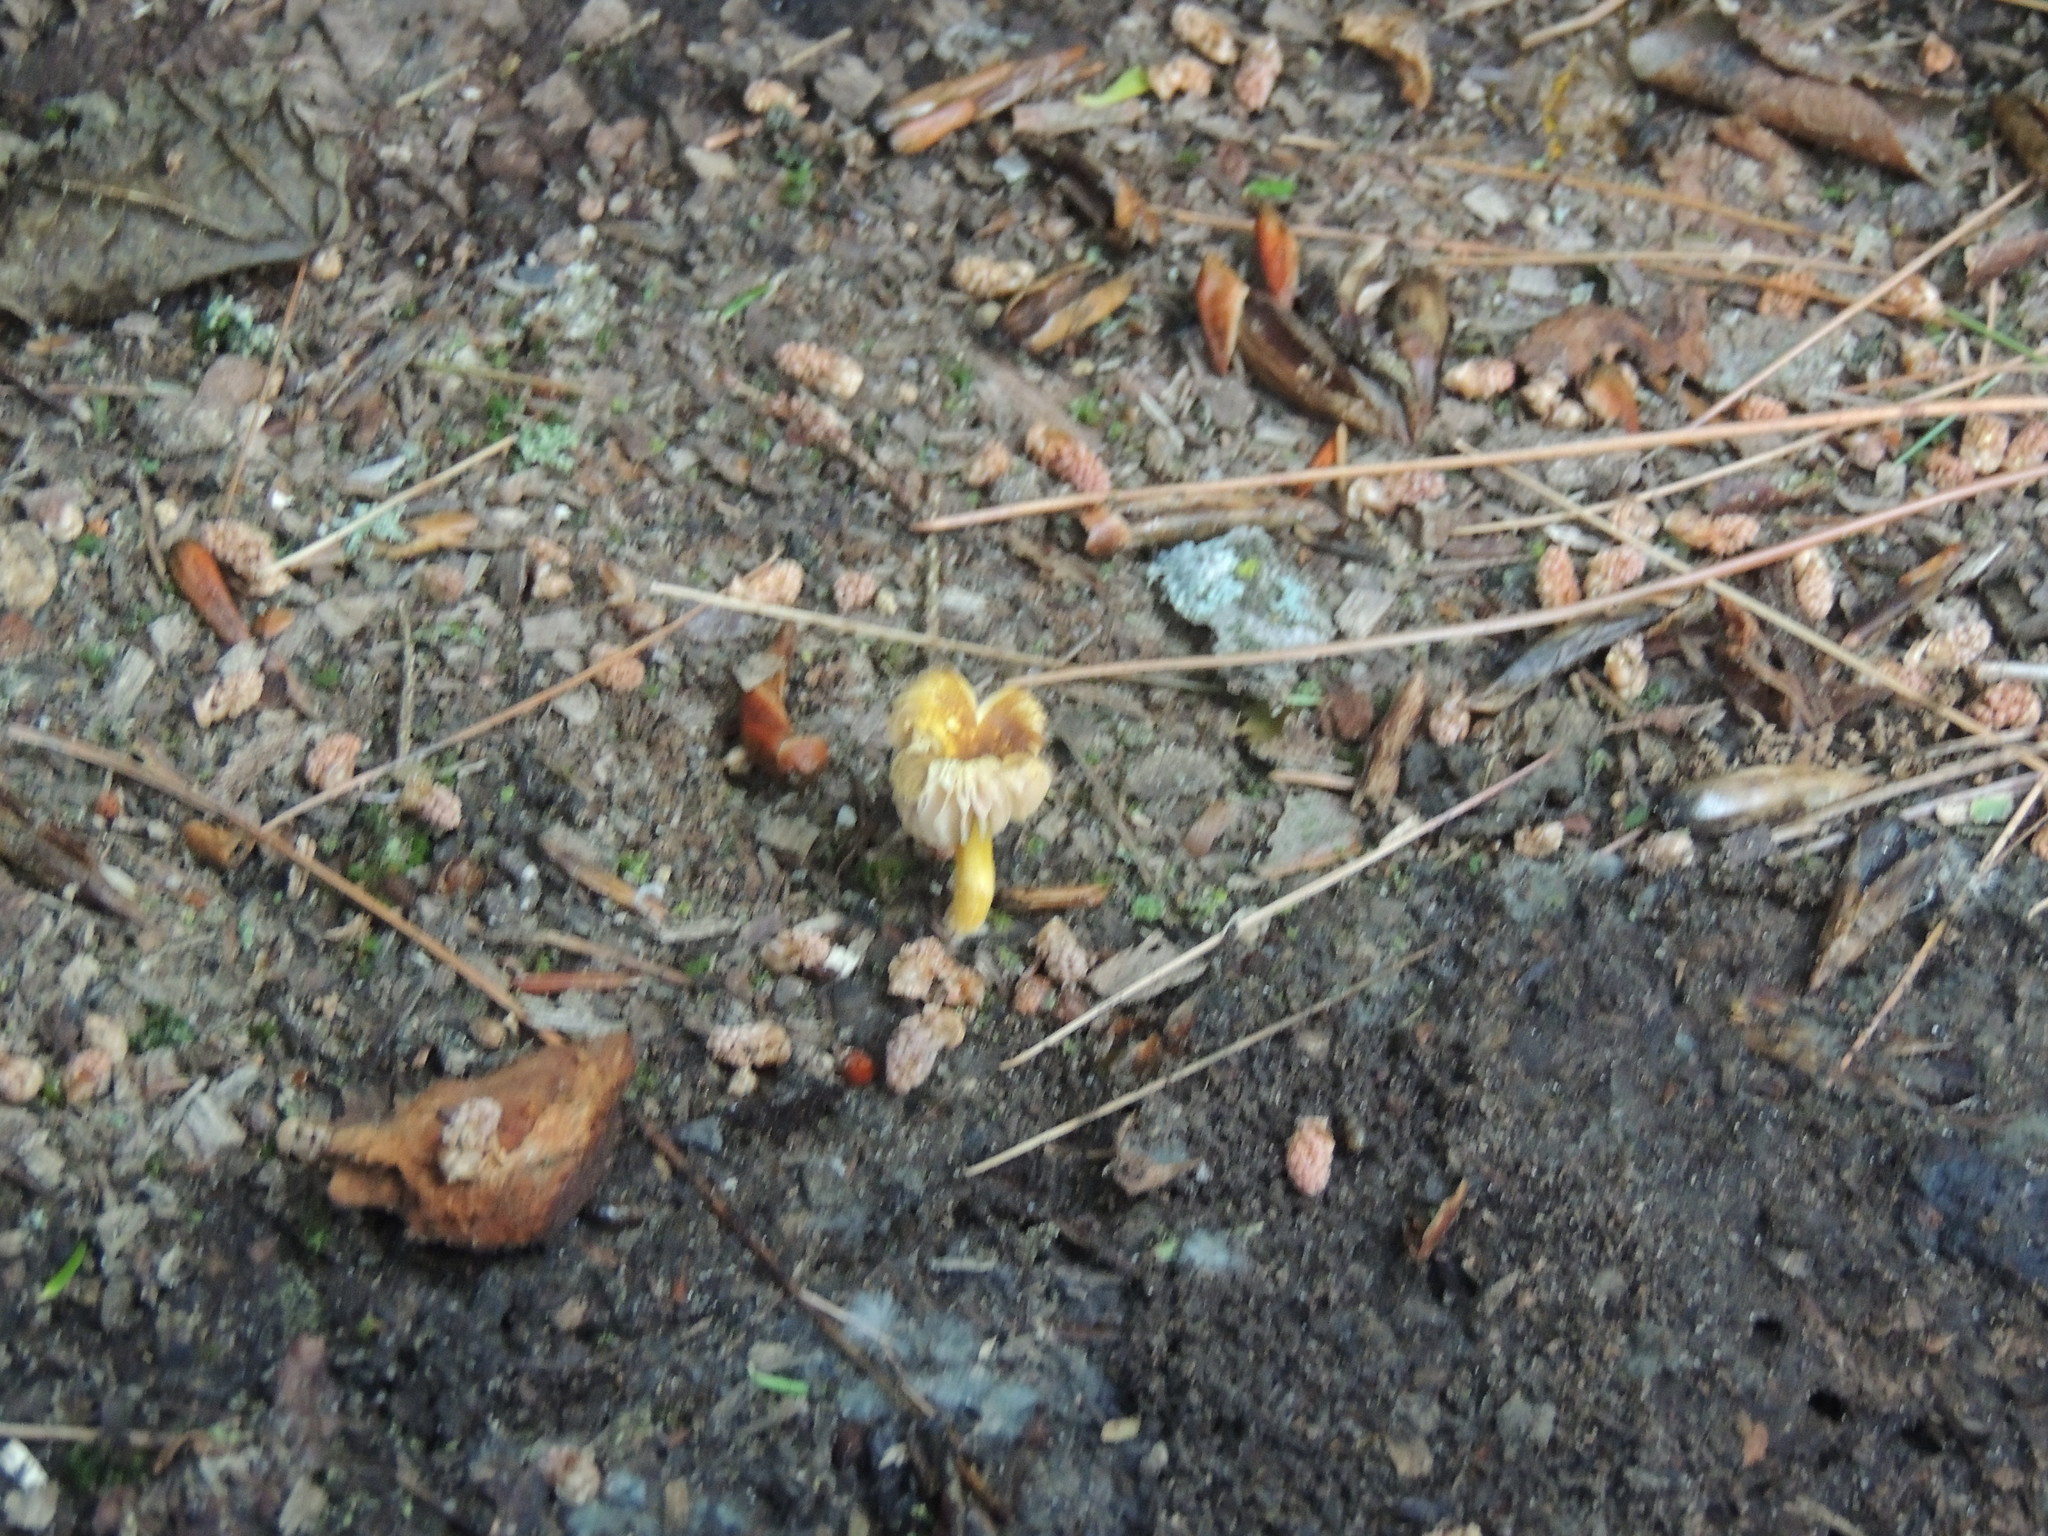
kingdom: Fungi
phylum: Basidiomycota
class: Agaricomycetes
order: Agaricales
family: Pluteaceae
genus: Pluteus
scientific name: Pluteus romellii
